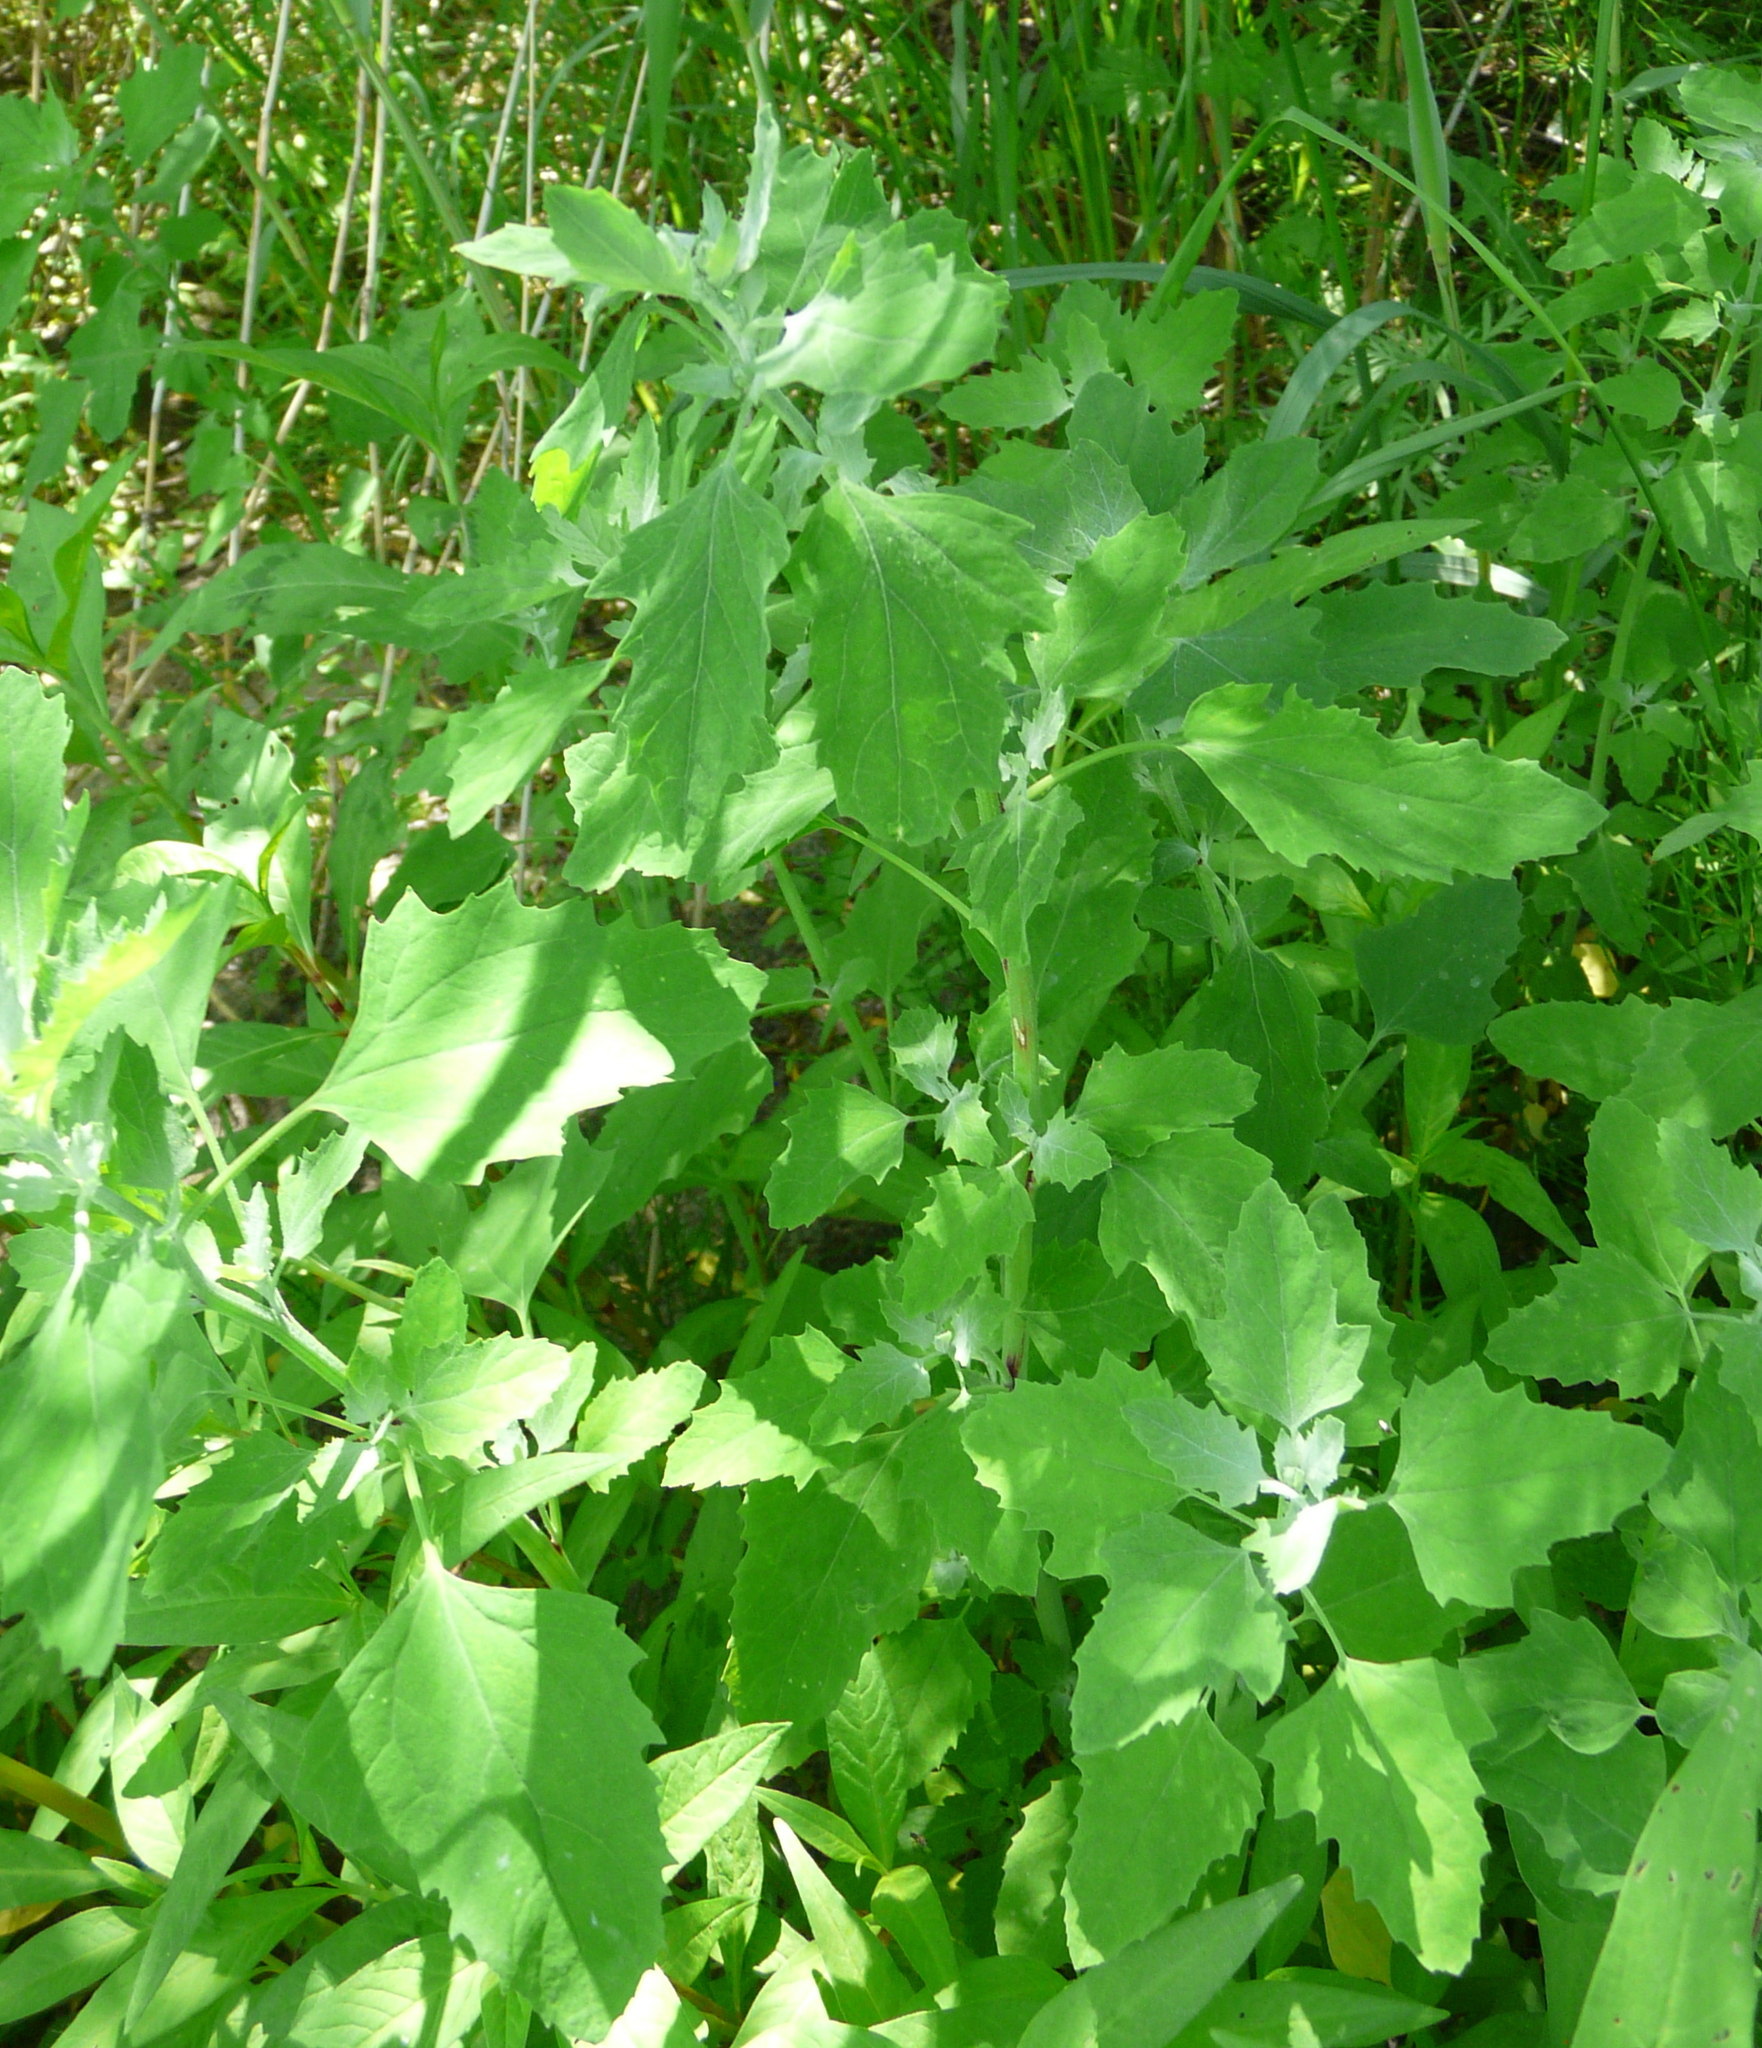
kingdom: Plantae
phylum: Tracheophyta
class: Magnoliopsida
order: Caryophyllales
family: Amaranthaceae
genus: Chenopodium
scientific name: Chenopodium album
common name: Fat-hen
